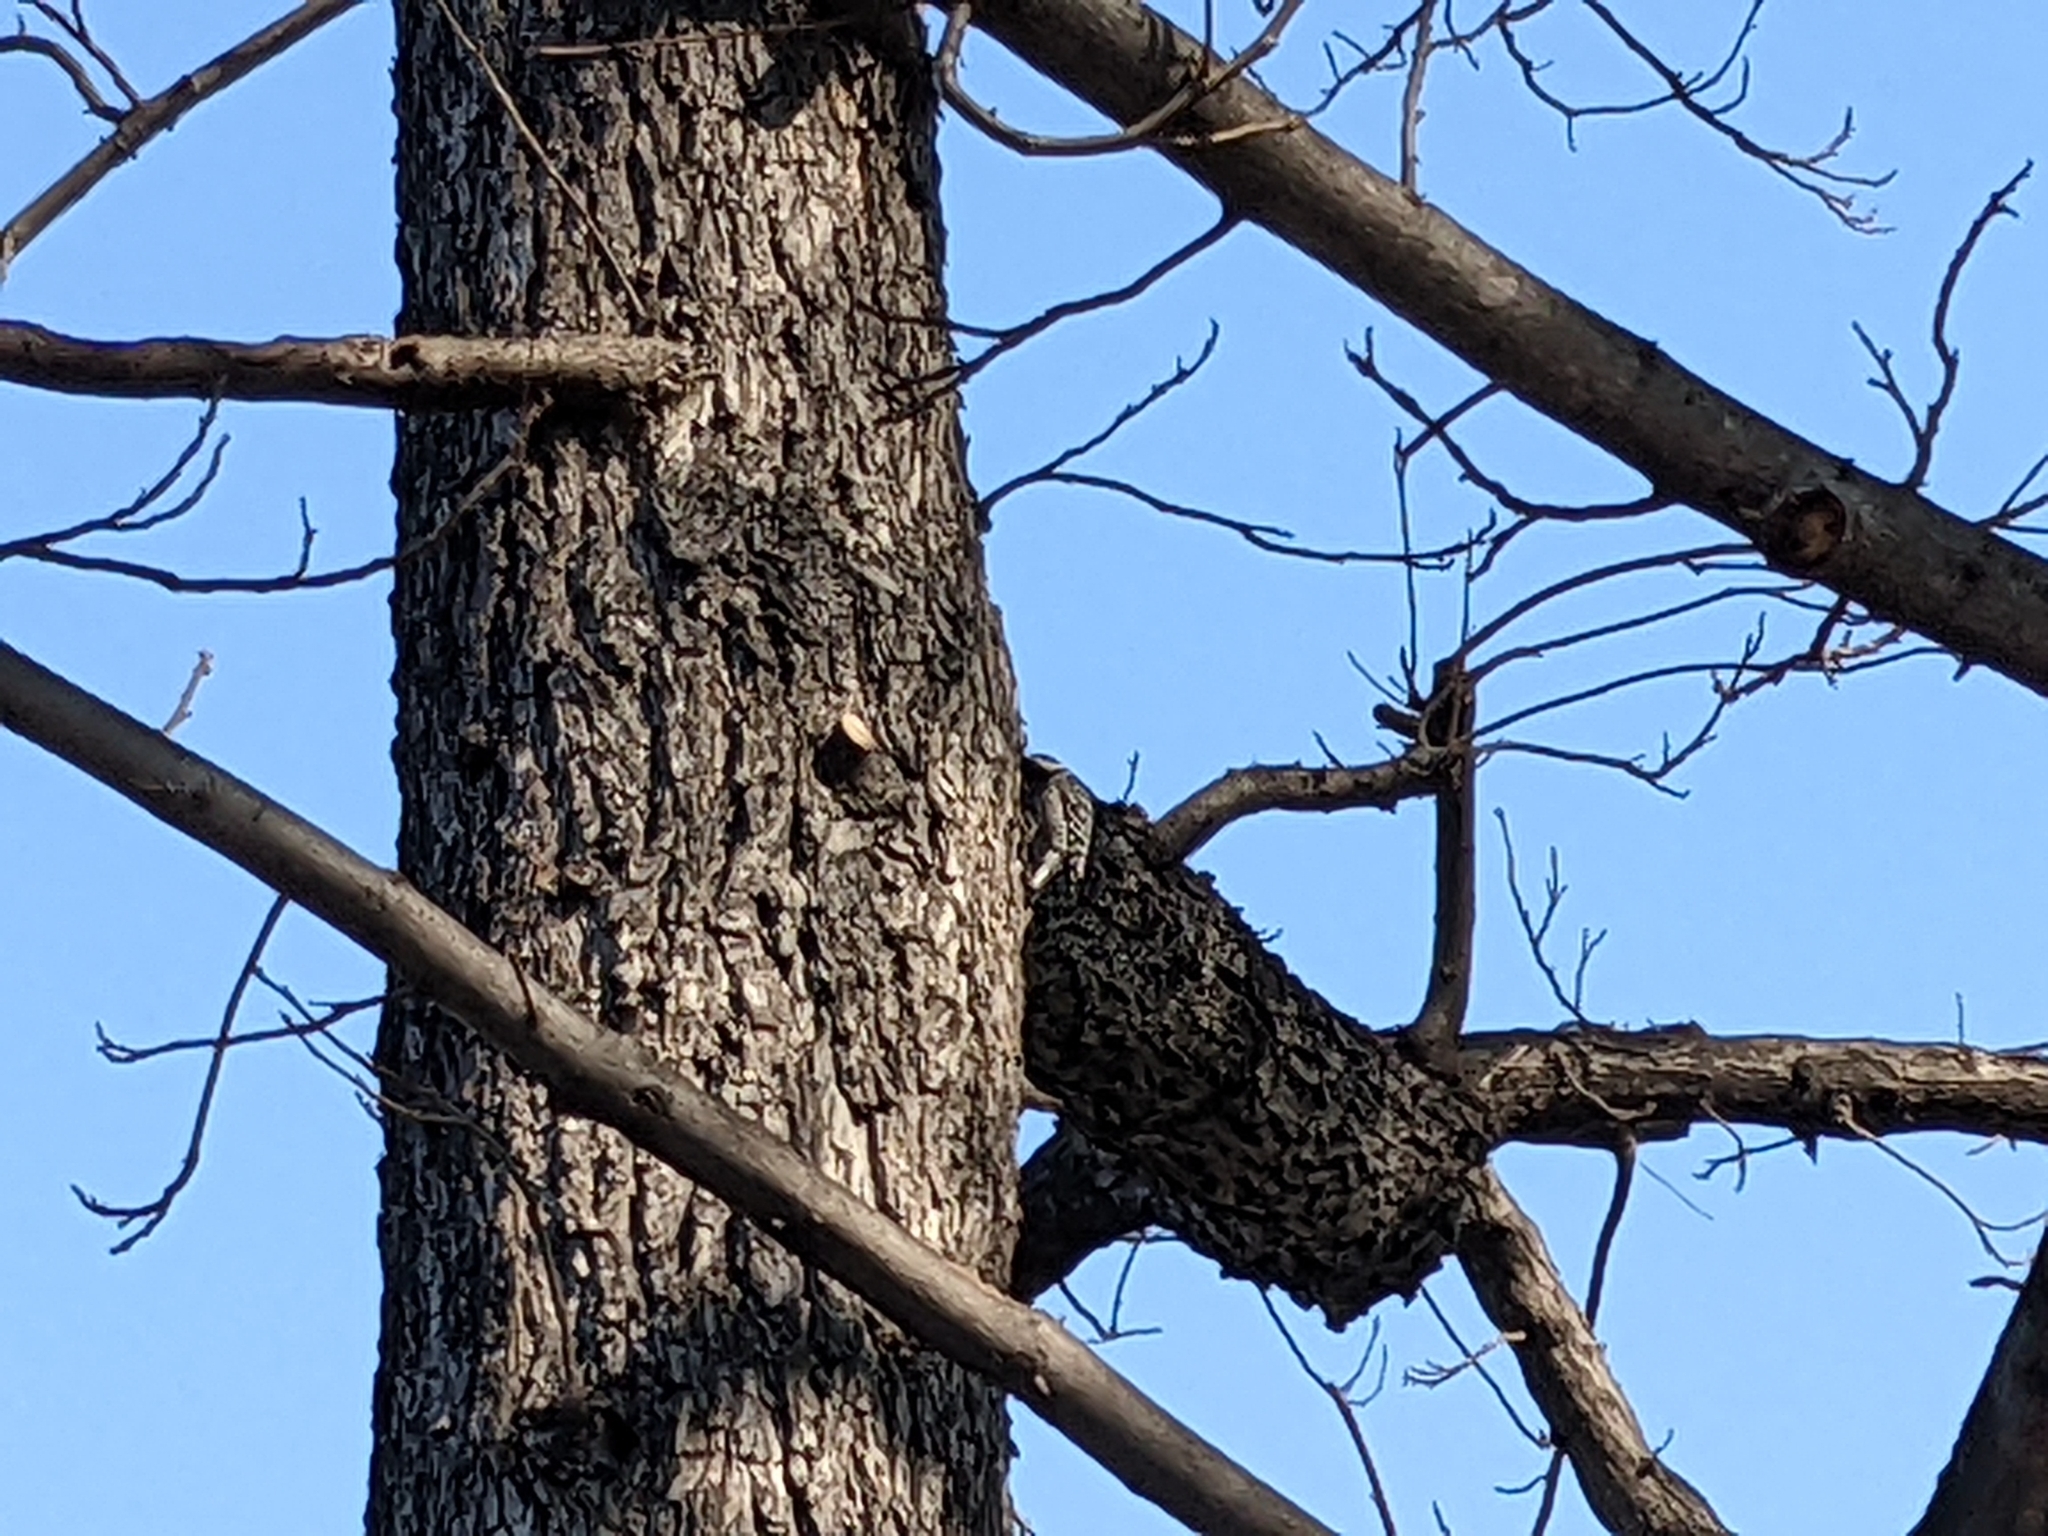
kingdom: Animalia
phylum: Chordata
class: Aves
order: Piciformes
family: Picidae
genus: Dryobates
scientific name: Dryobates nuttallii
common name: Nuttall's woodpecker
